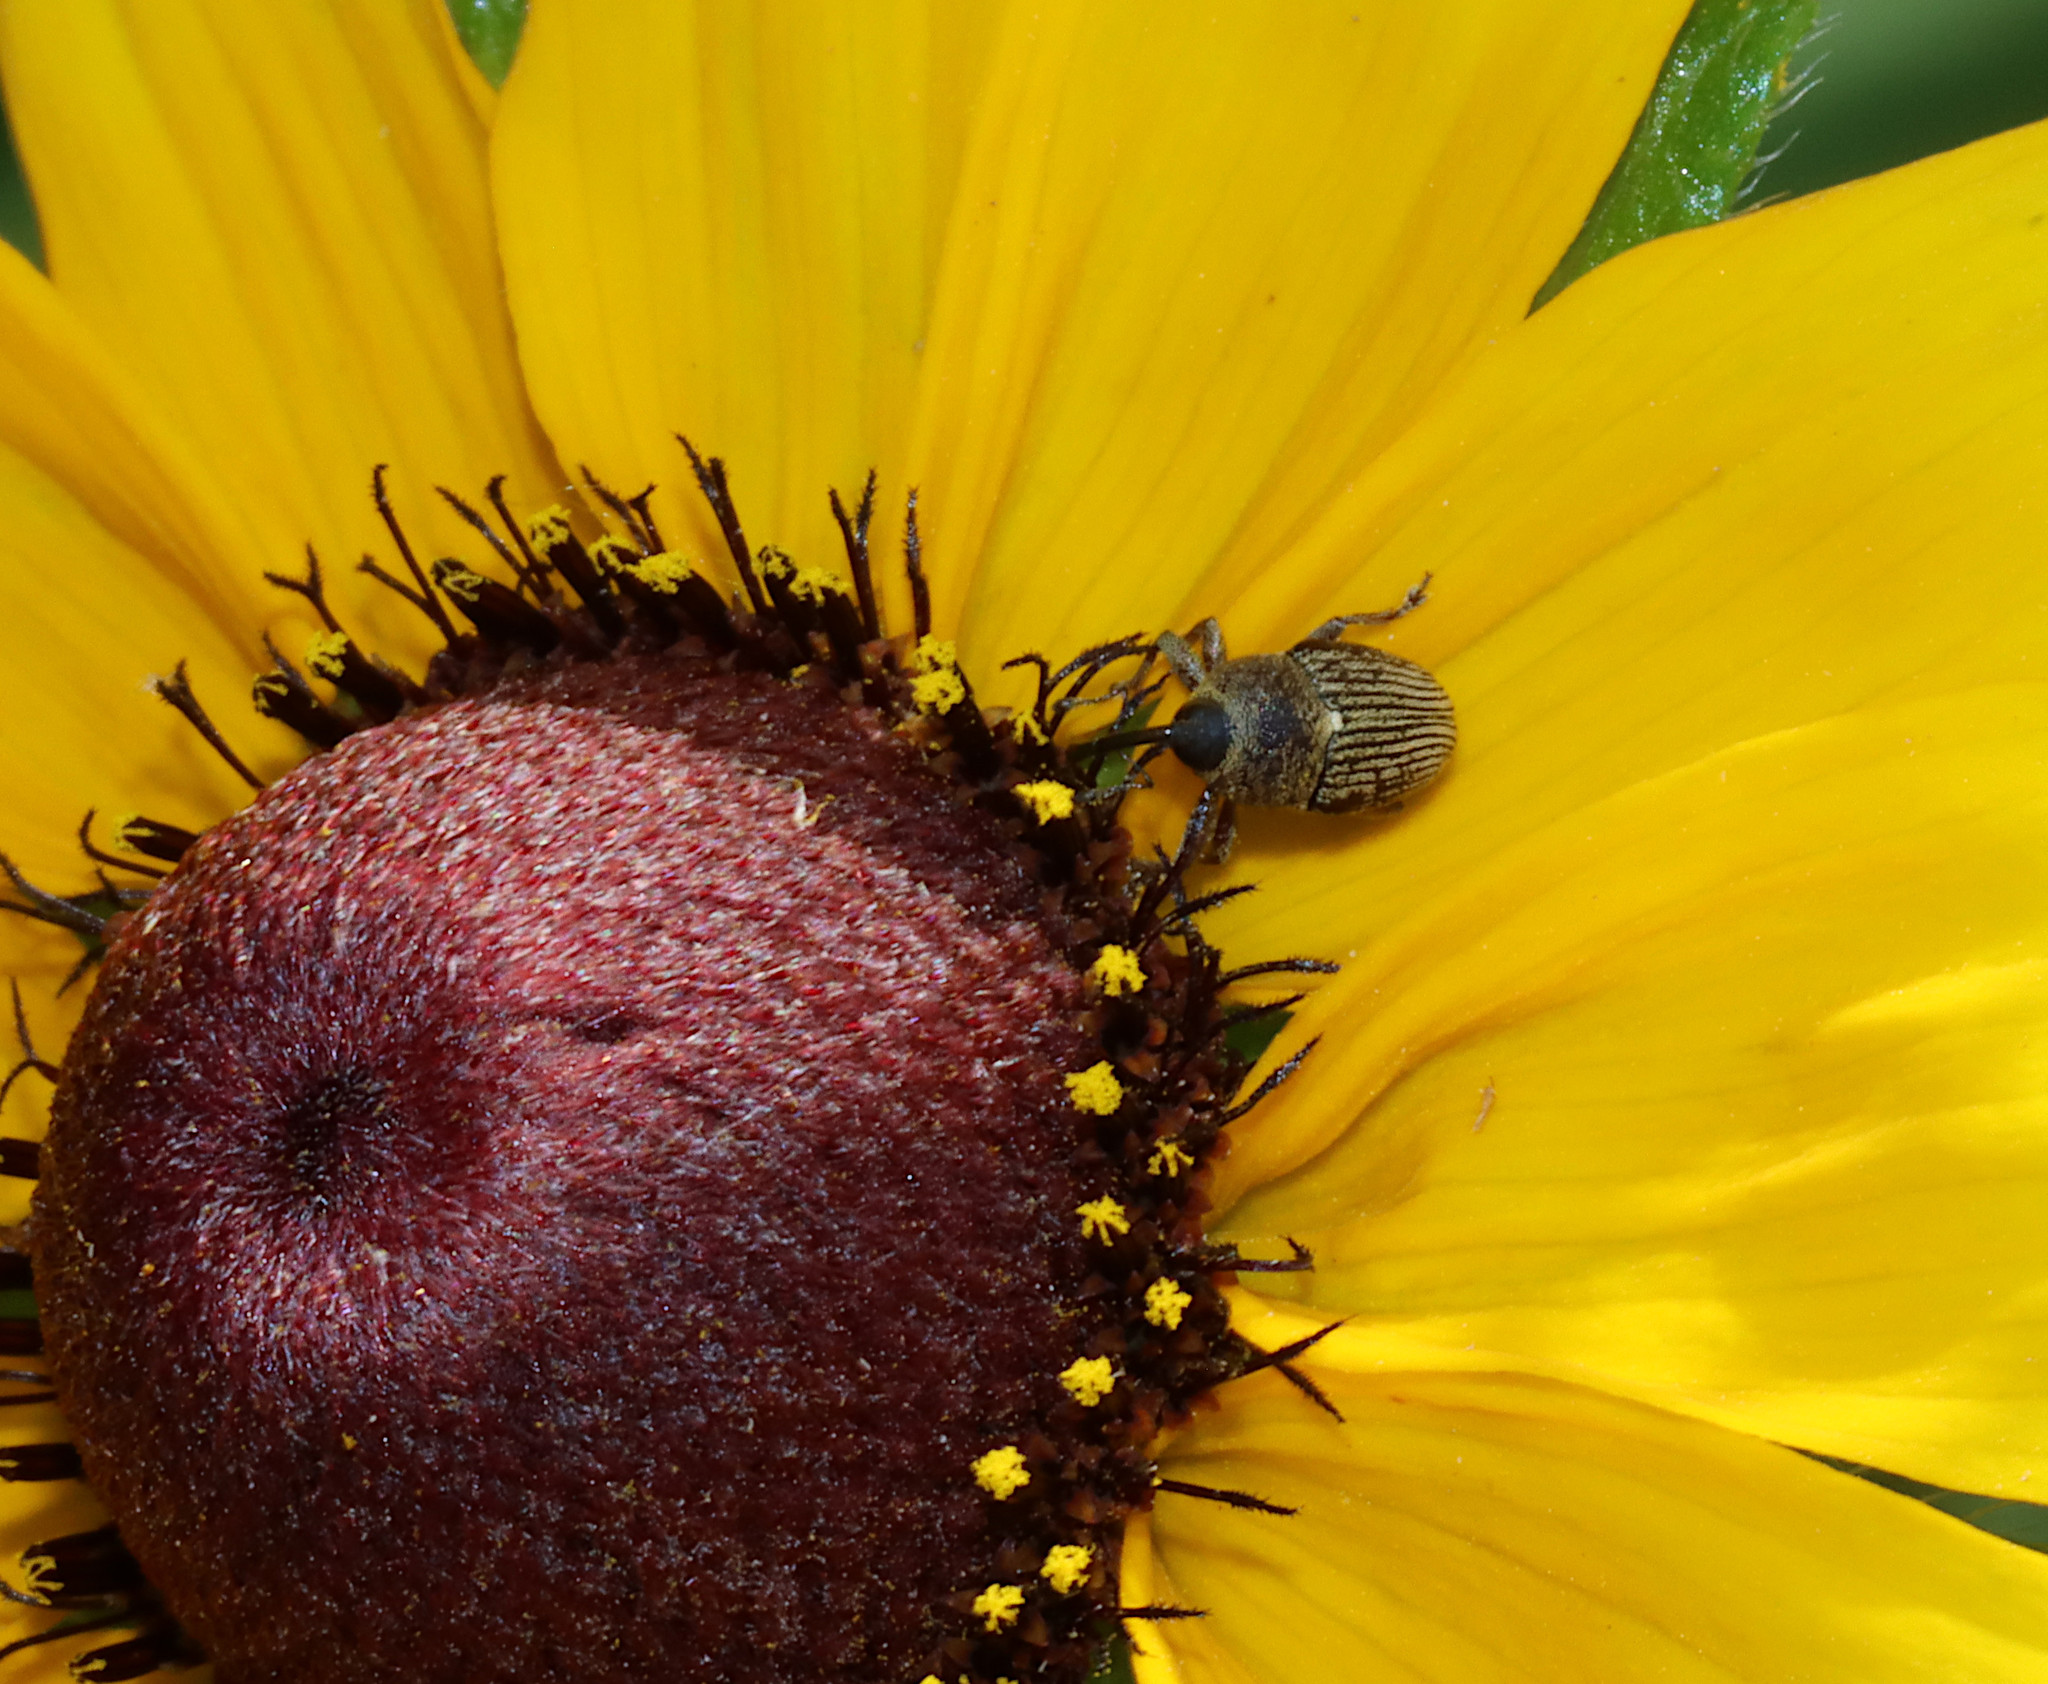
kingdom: Animalia
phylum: Arthropoda
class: Insecta
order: Coleoptera
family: Curculionidae
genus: Odontocorynus
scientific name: Odontocorynus salebrosus
